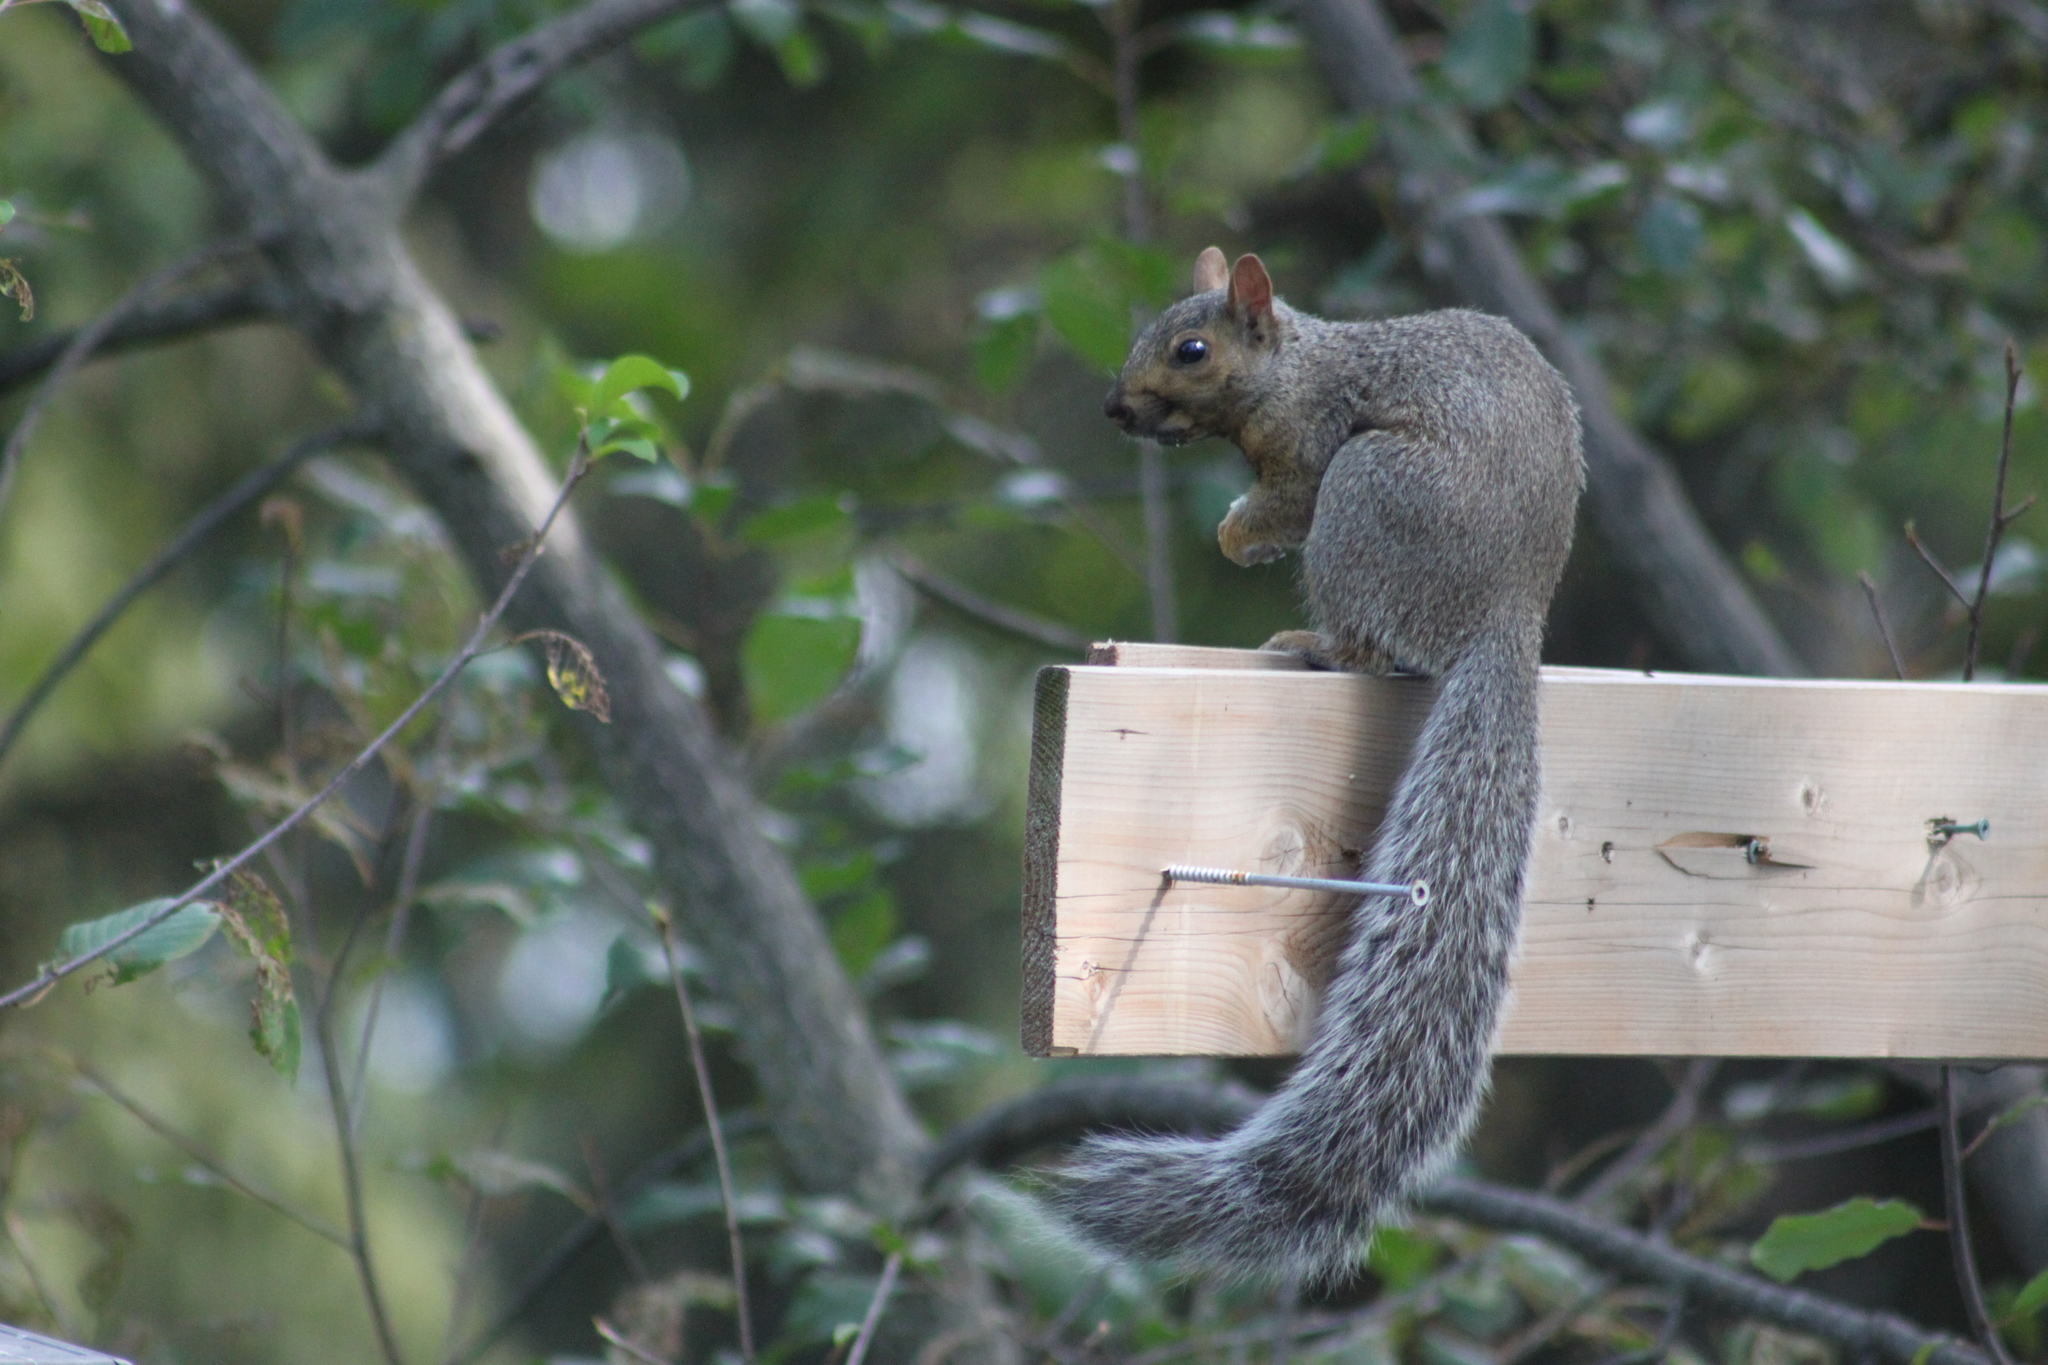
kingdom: Animalia
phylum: Chordata
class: Mammalia
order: Rodentia
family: Sciuridae
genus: Sciurus
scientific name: Sciurus carolinensis
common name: Eastern gray squirrel
